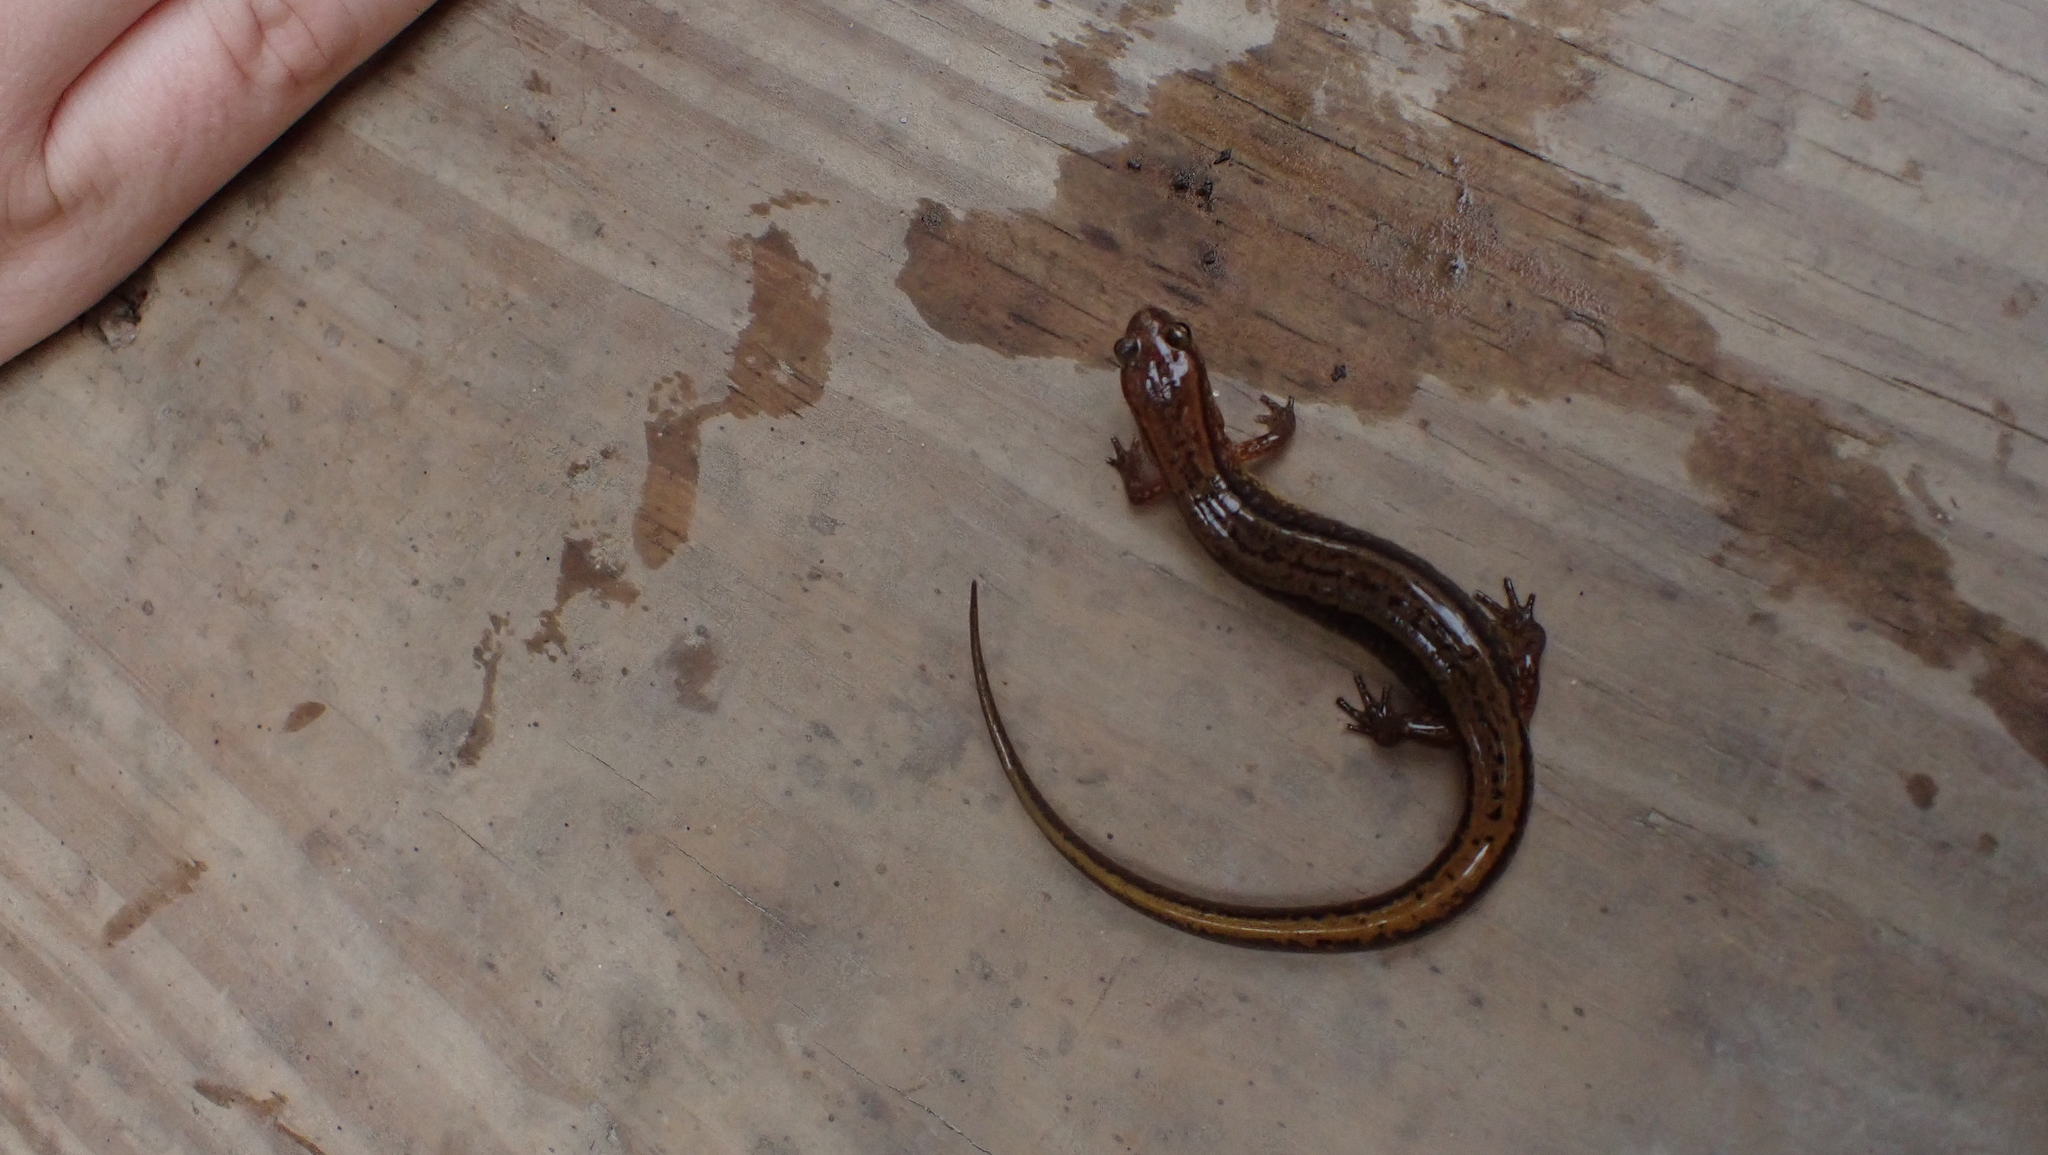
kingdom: Animalia
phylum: Chordata
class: Amphibia
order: Caudata
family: Plethodontidae
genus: Eurycea
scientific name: Eurycea cirrigera
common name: Southern two-lined salamander
